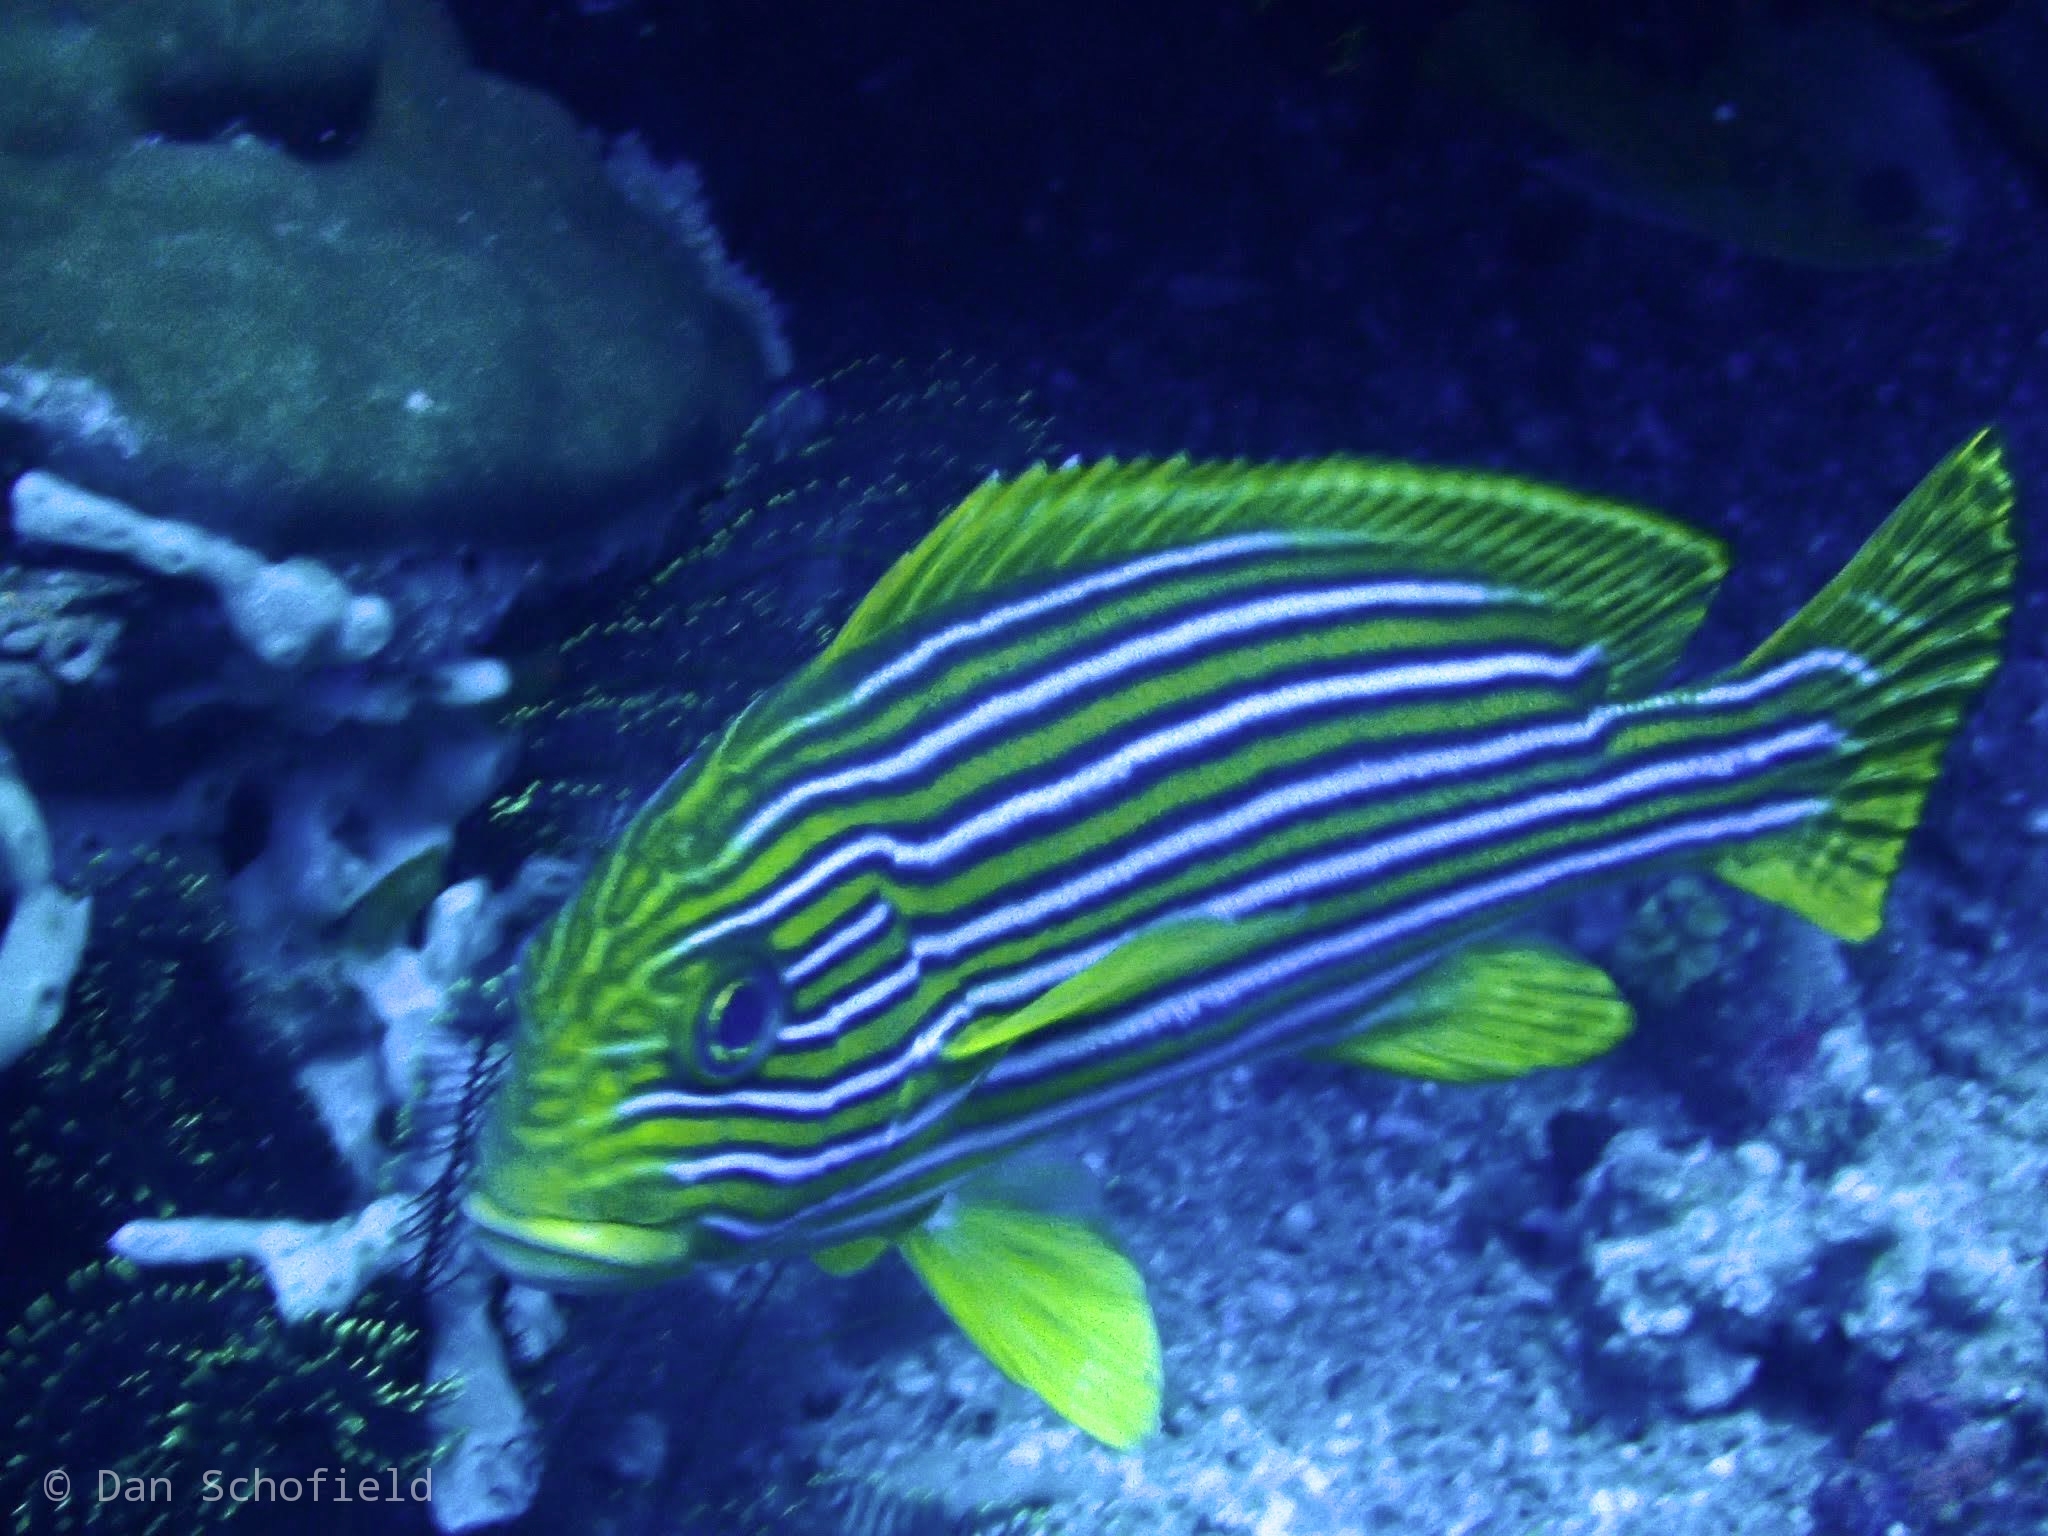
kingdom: Animalia
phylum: Chordata
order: Perciformes
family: Haemulidae
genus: Plectorhinchus
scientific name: Plectorhinchus polytaenia
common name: Ribboned sweetlips
